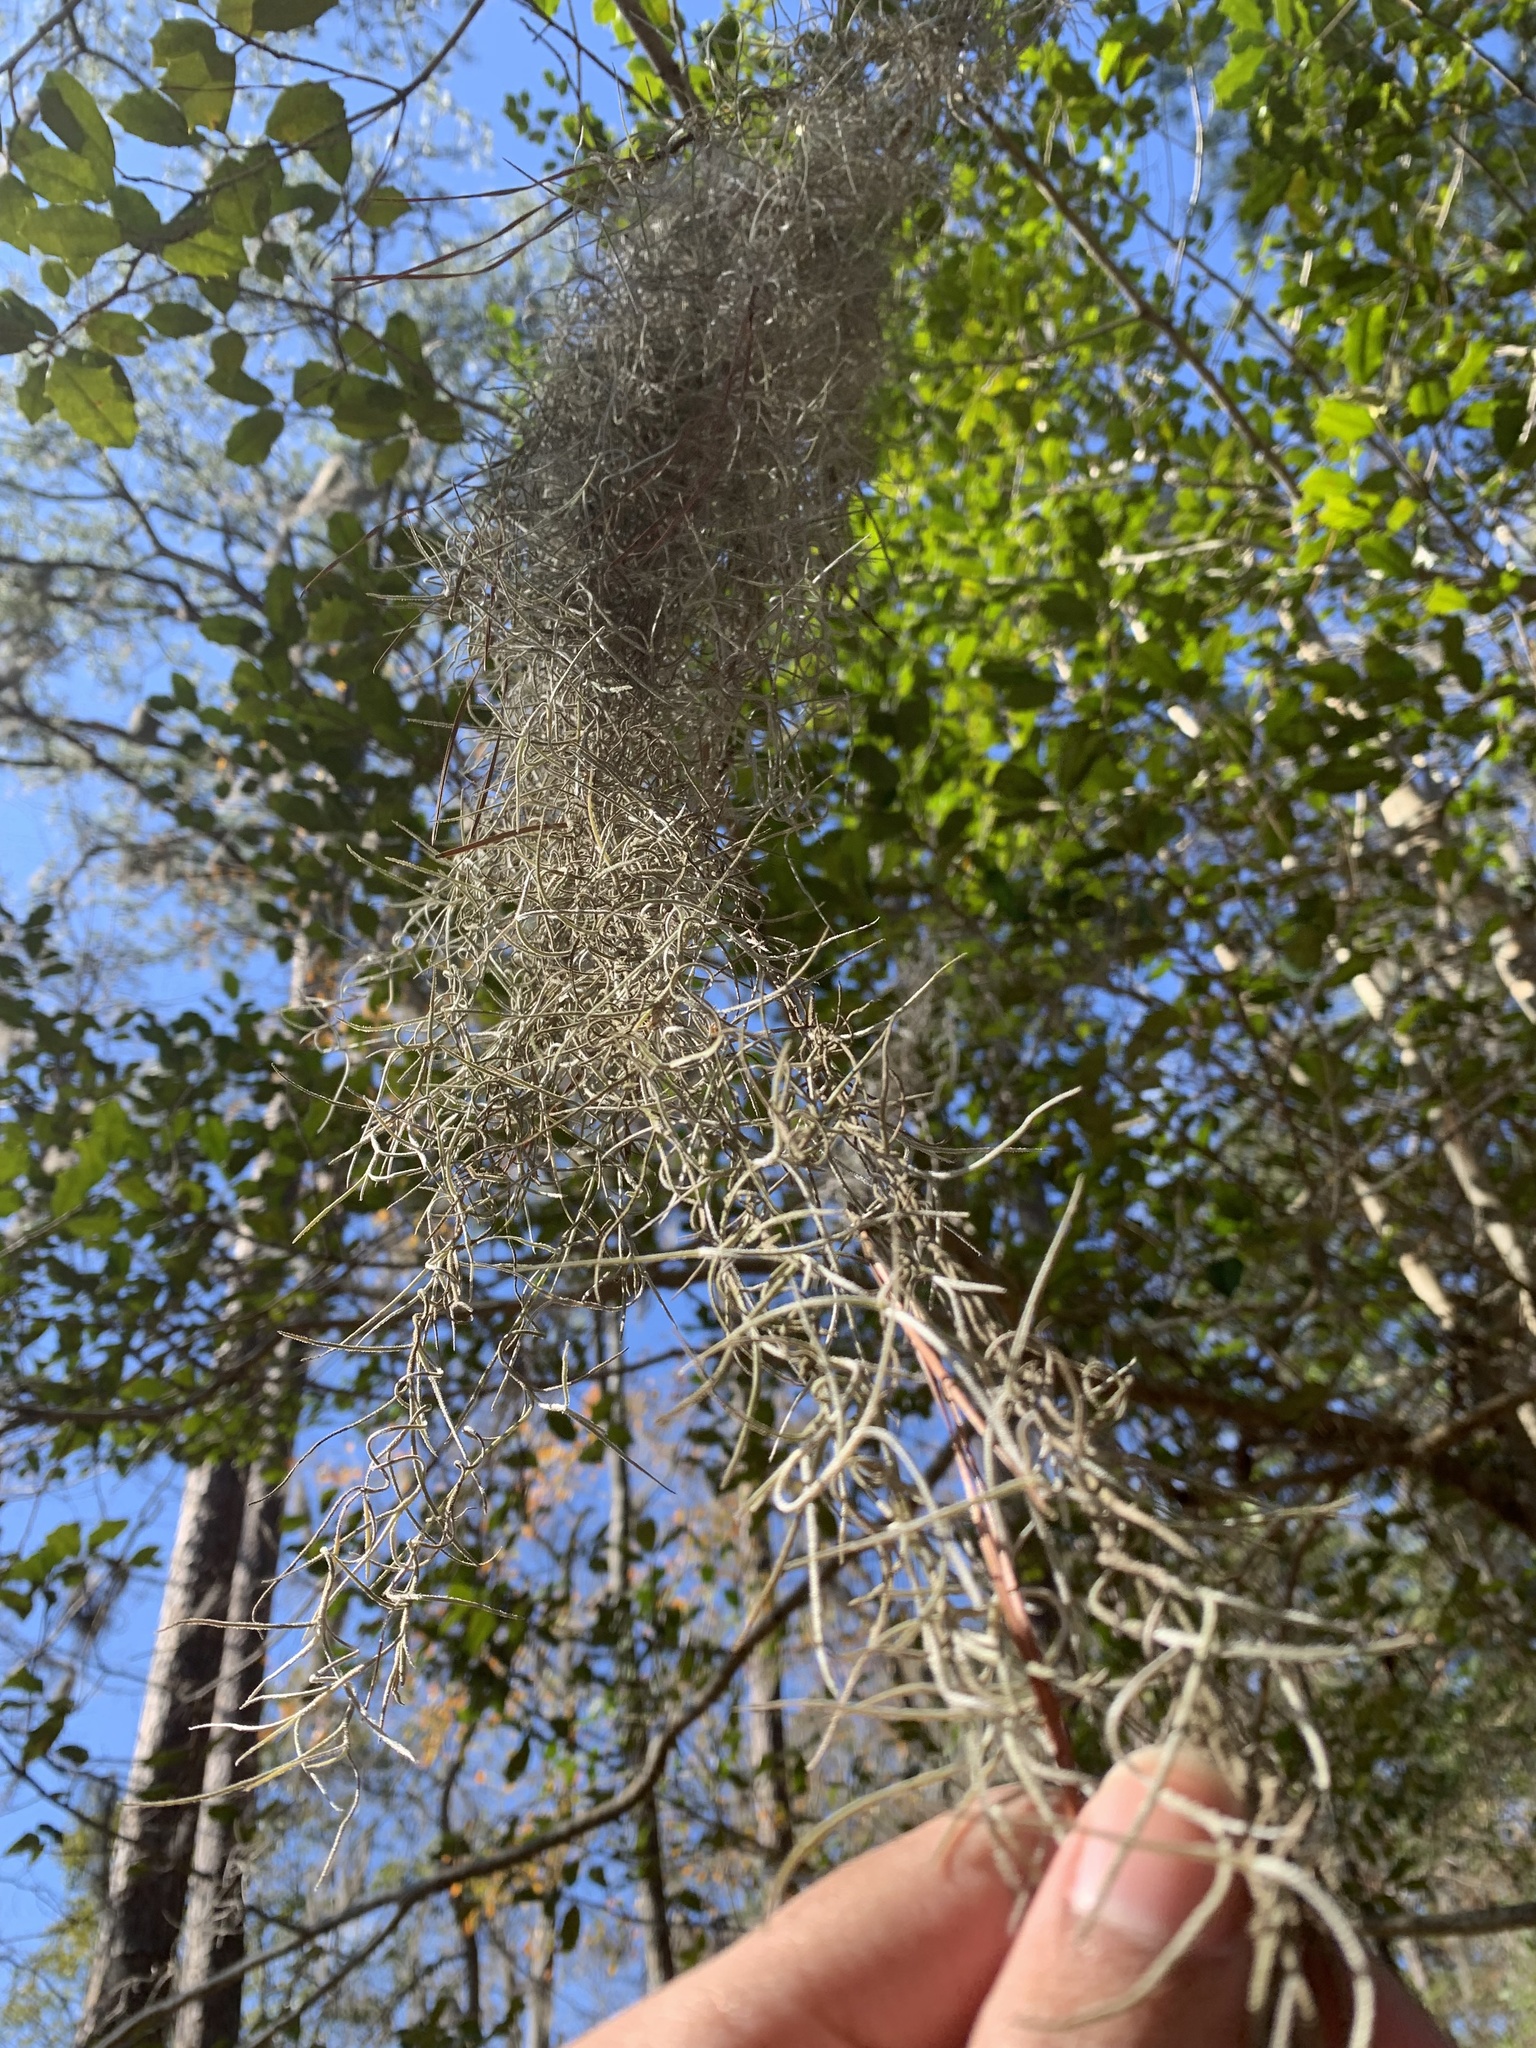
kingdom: Plantae
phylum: Tracheophyta
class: Liliopsida
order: Poales
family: Bromeliaceae
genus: Tillandsia
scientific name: Tillandsia usneoides
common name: Spanish moss
